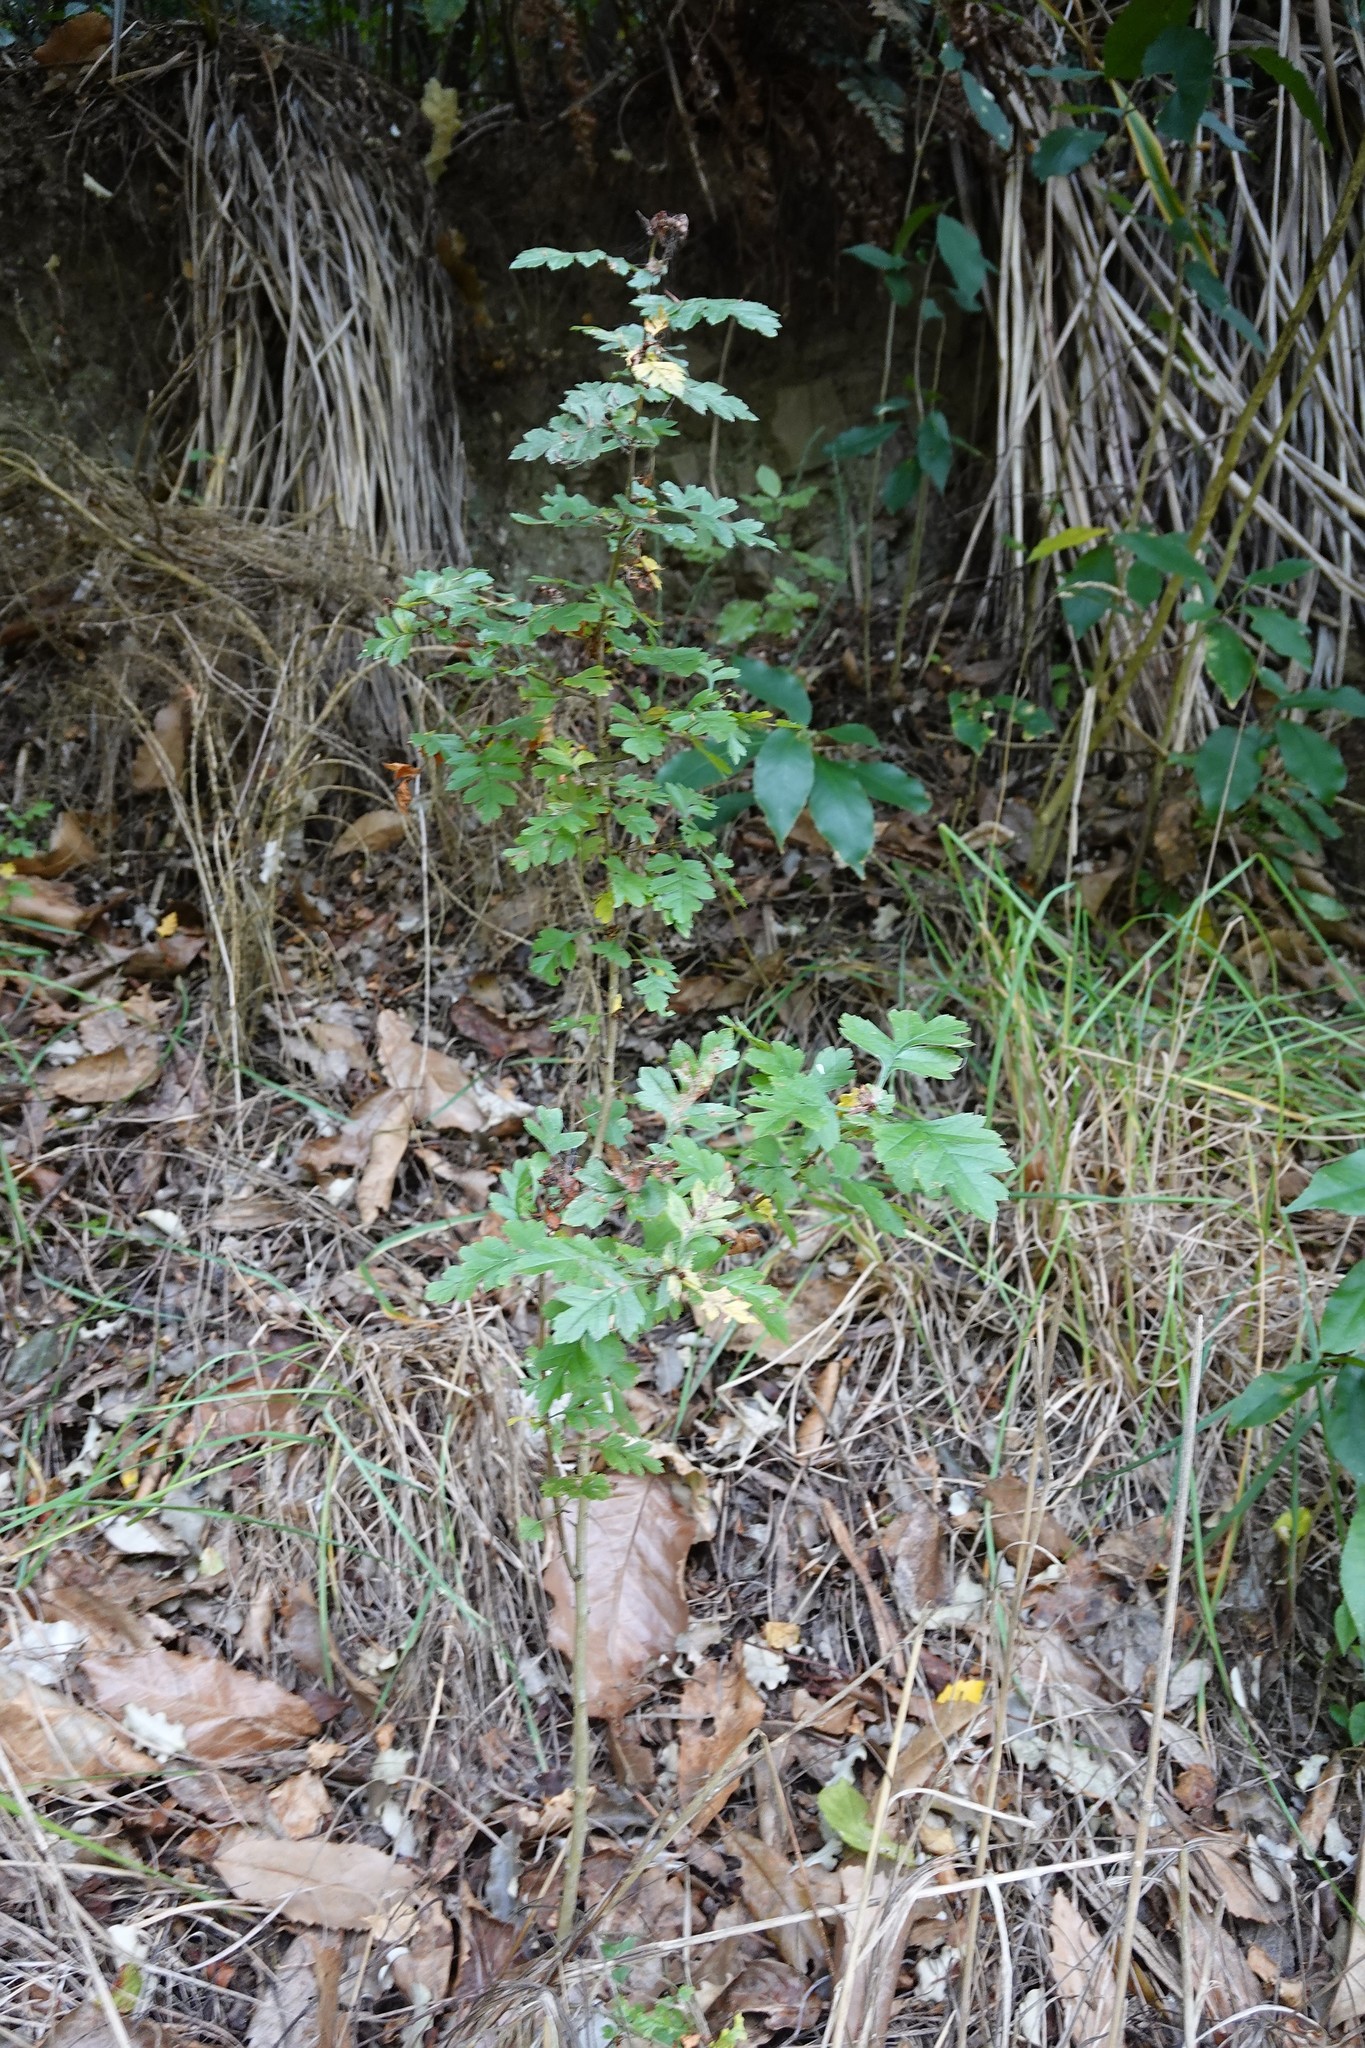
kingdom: Plantae
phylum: Tracheophyta
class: Magnoliopsida
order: Rosales
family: Rosaceae
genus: Crataegus
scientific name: Crataegus monogyna
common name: Hawthorn
